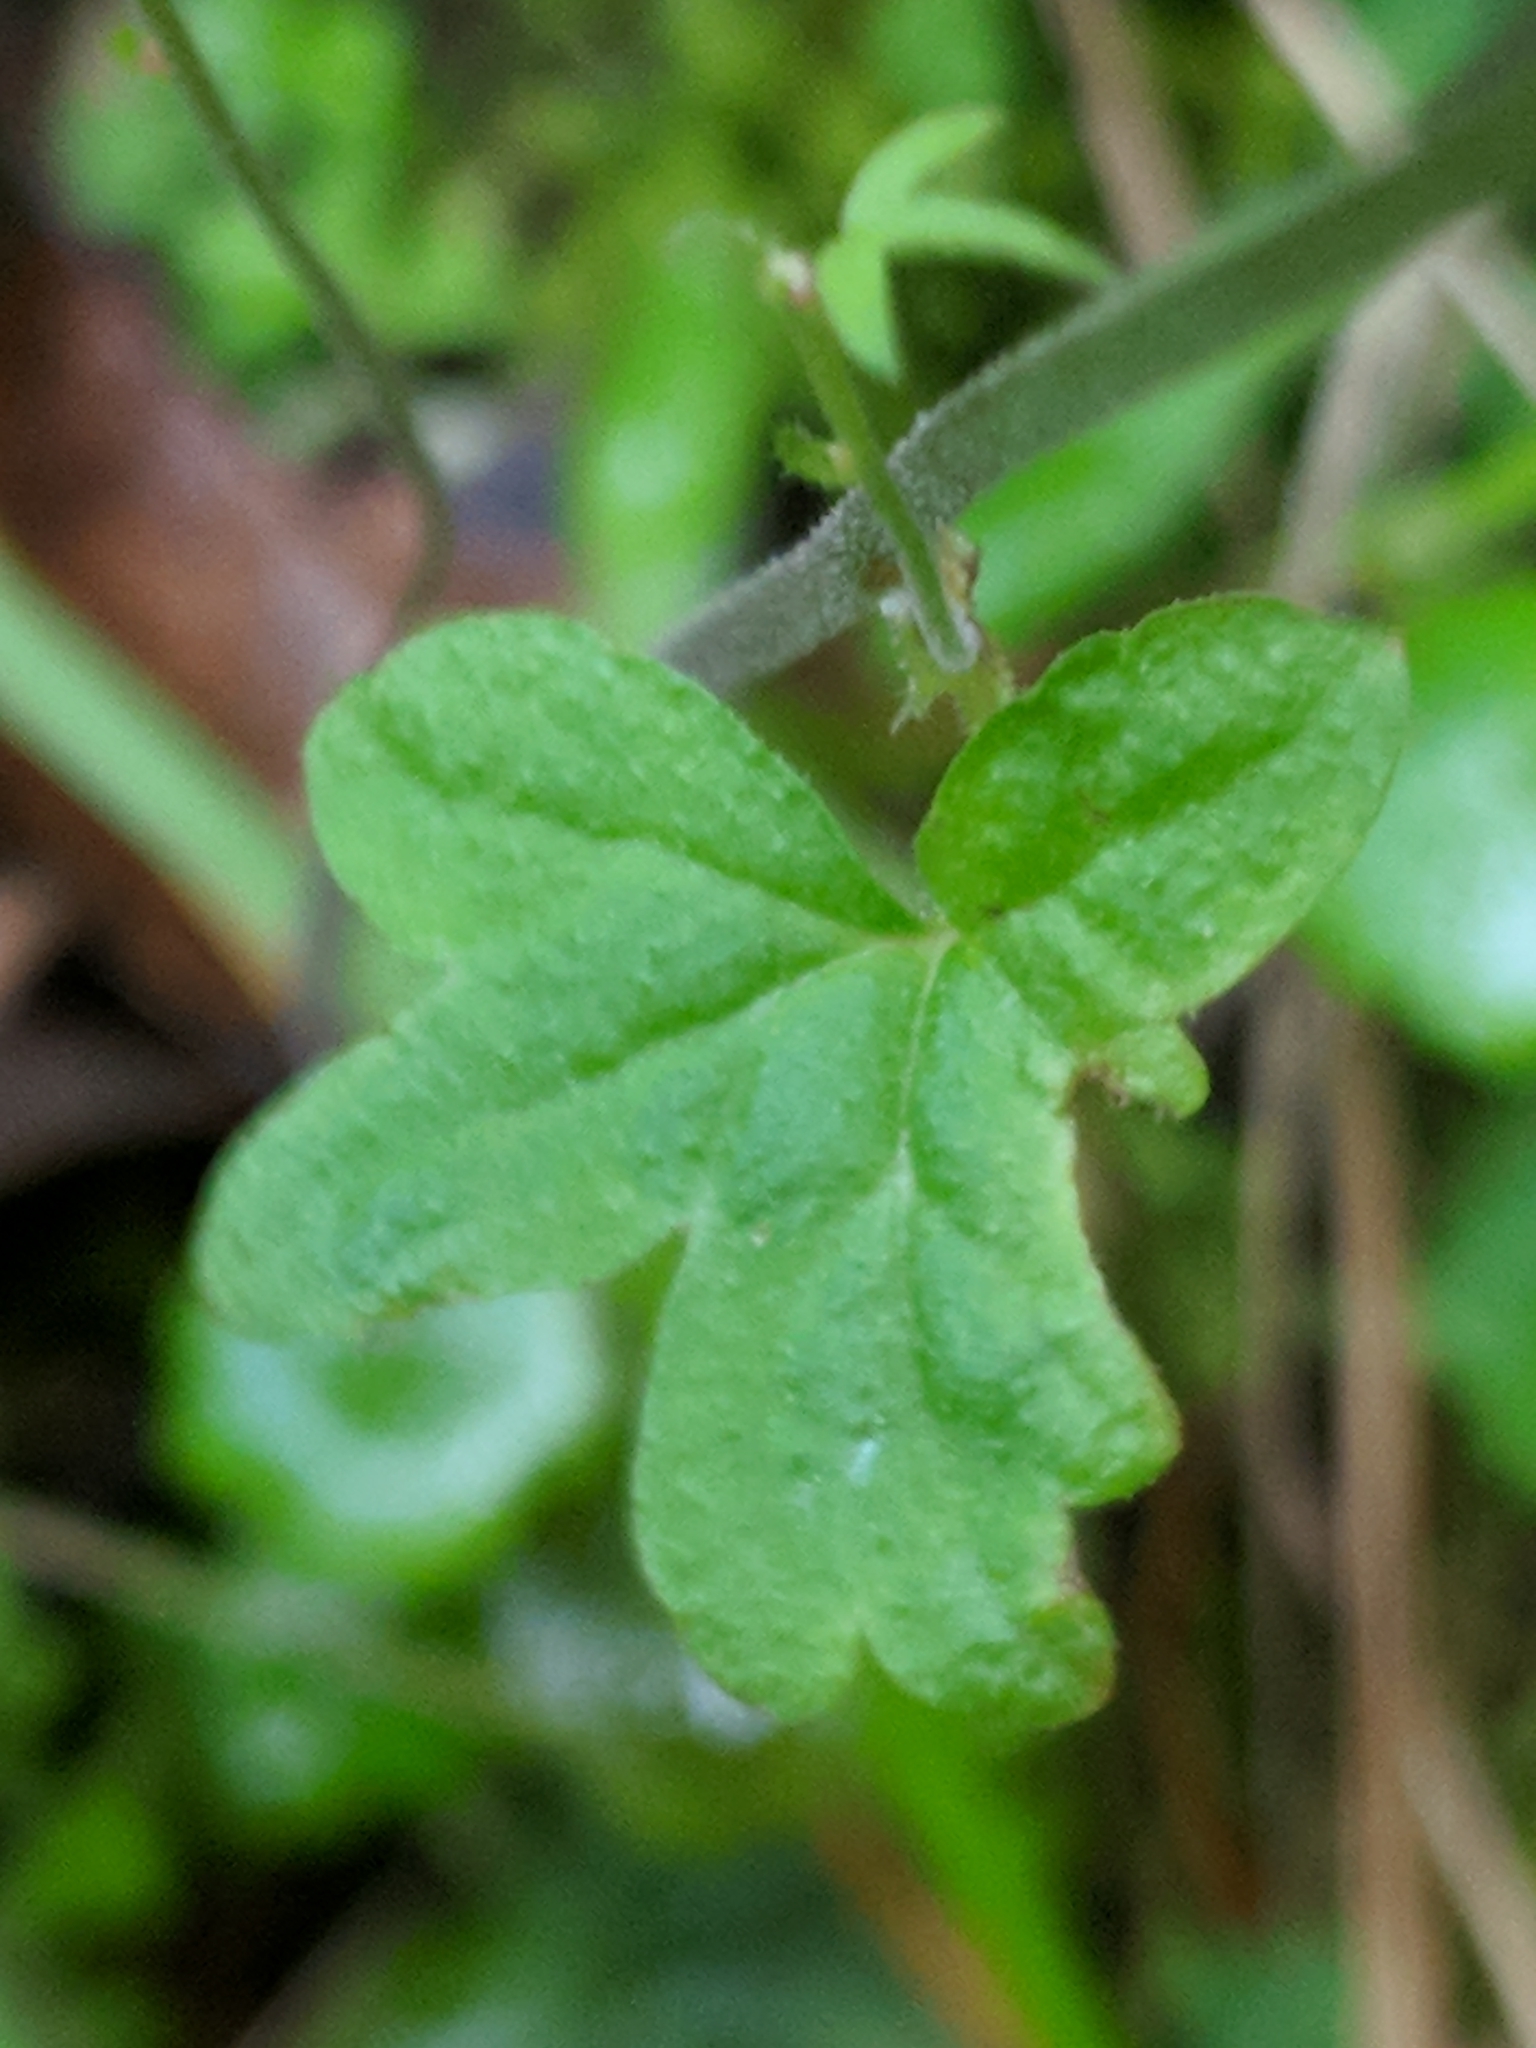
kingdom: Plantae
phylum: Tracheophyta
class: Magnoliopsida
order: Saxifragales
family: Saxifragaceae
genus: Lithophragma
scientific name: Lithophragma heterophyllum
